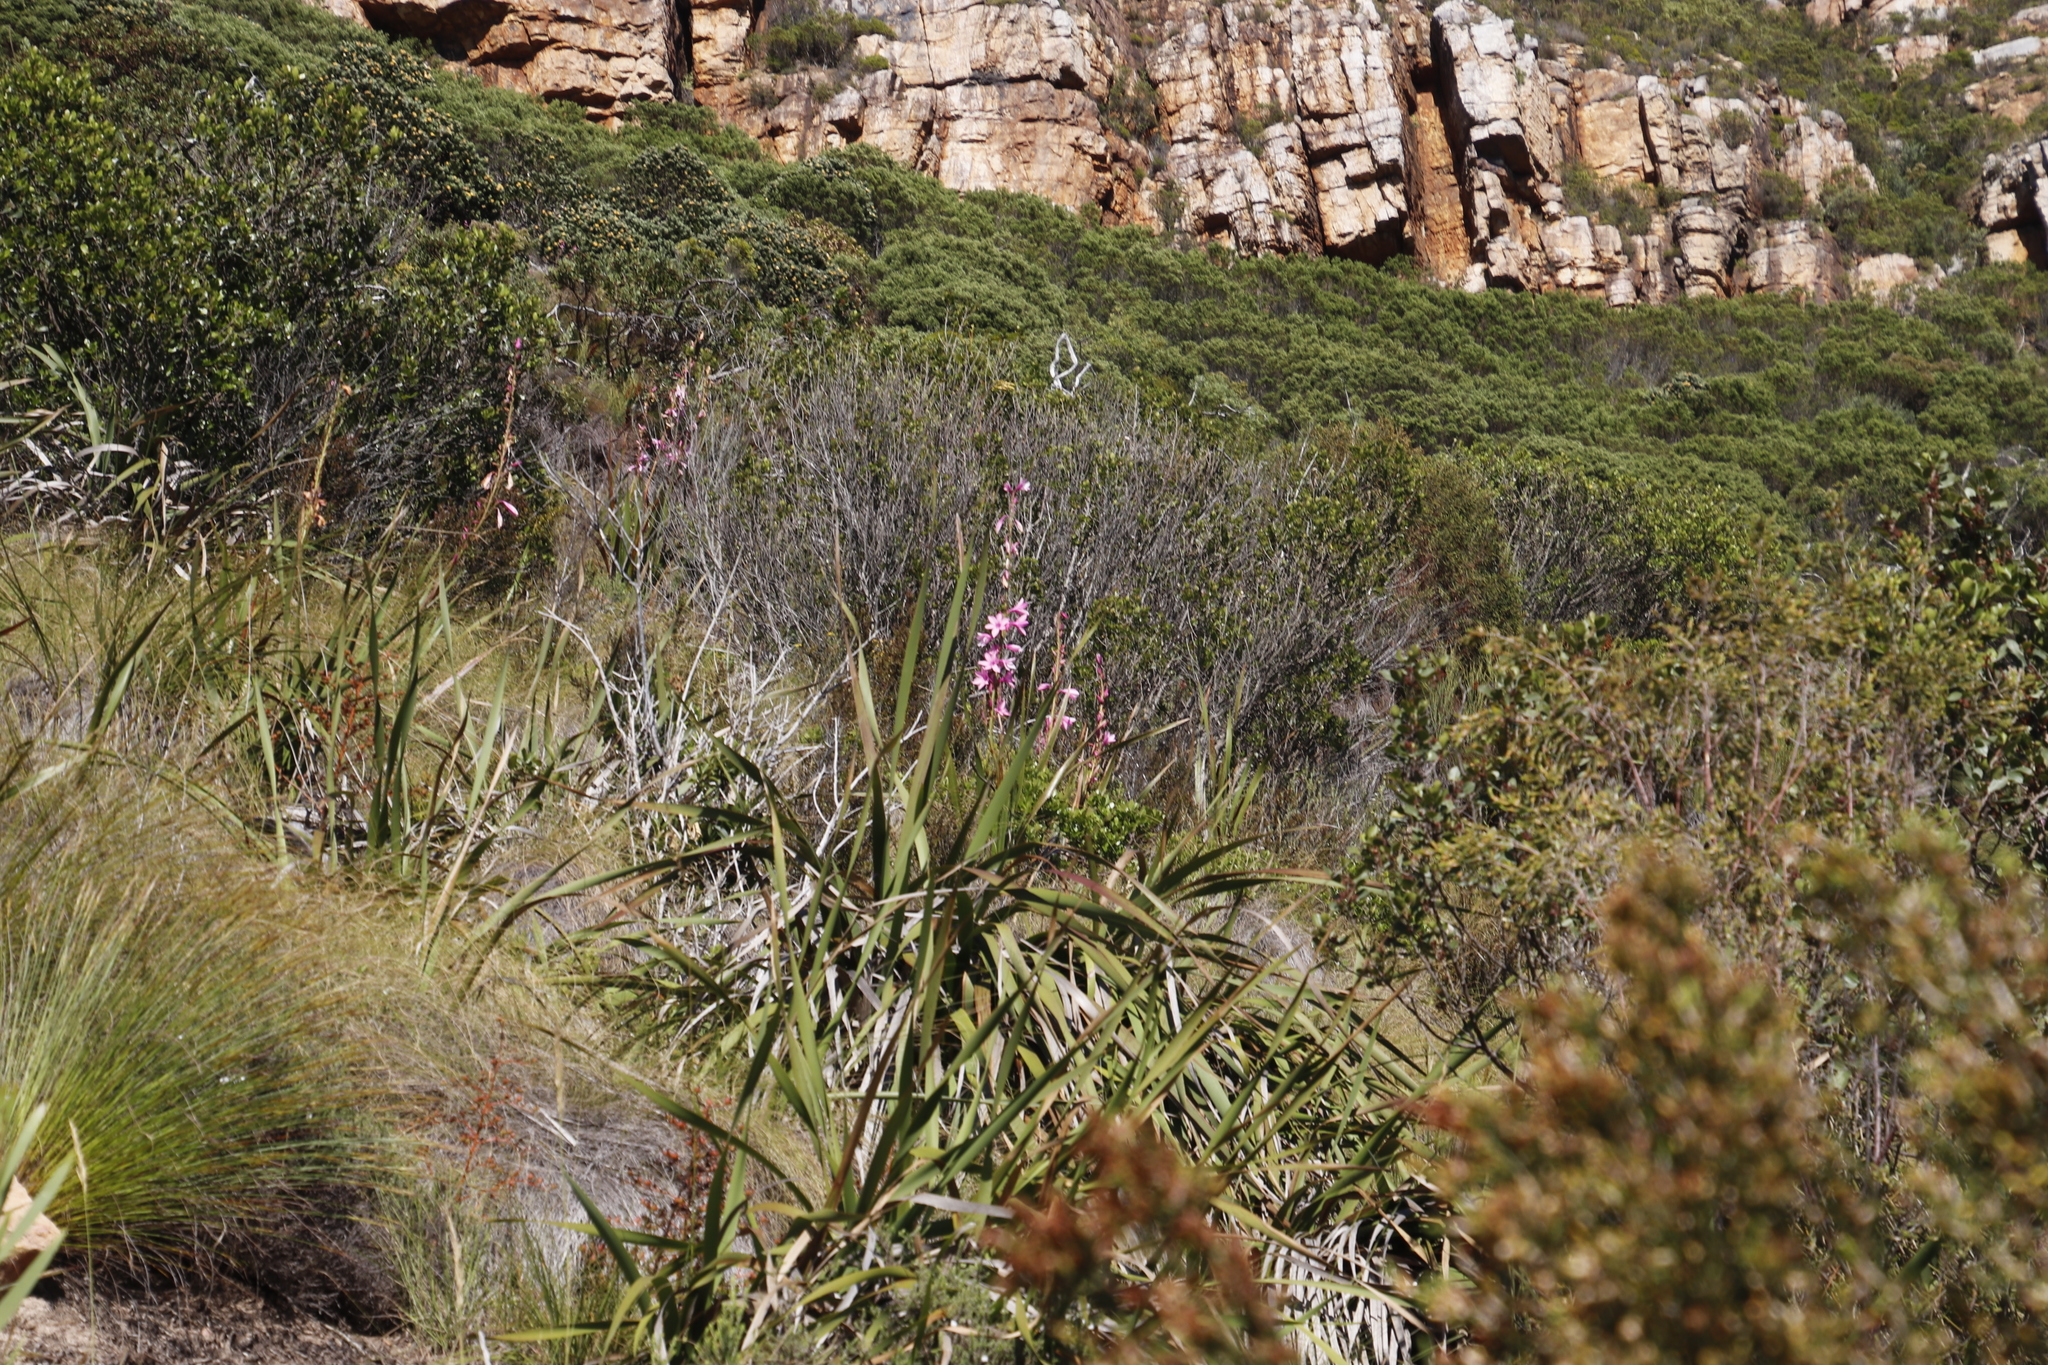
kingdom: Plantae
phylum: Tracheophyta
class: Liliopsida
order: Asparagales
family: Iridaceae
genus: Watsonia
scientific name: Watsonia borbonica
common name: Bugle-lily
